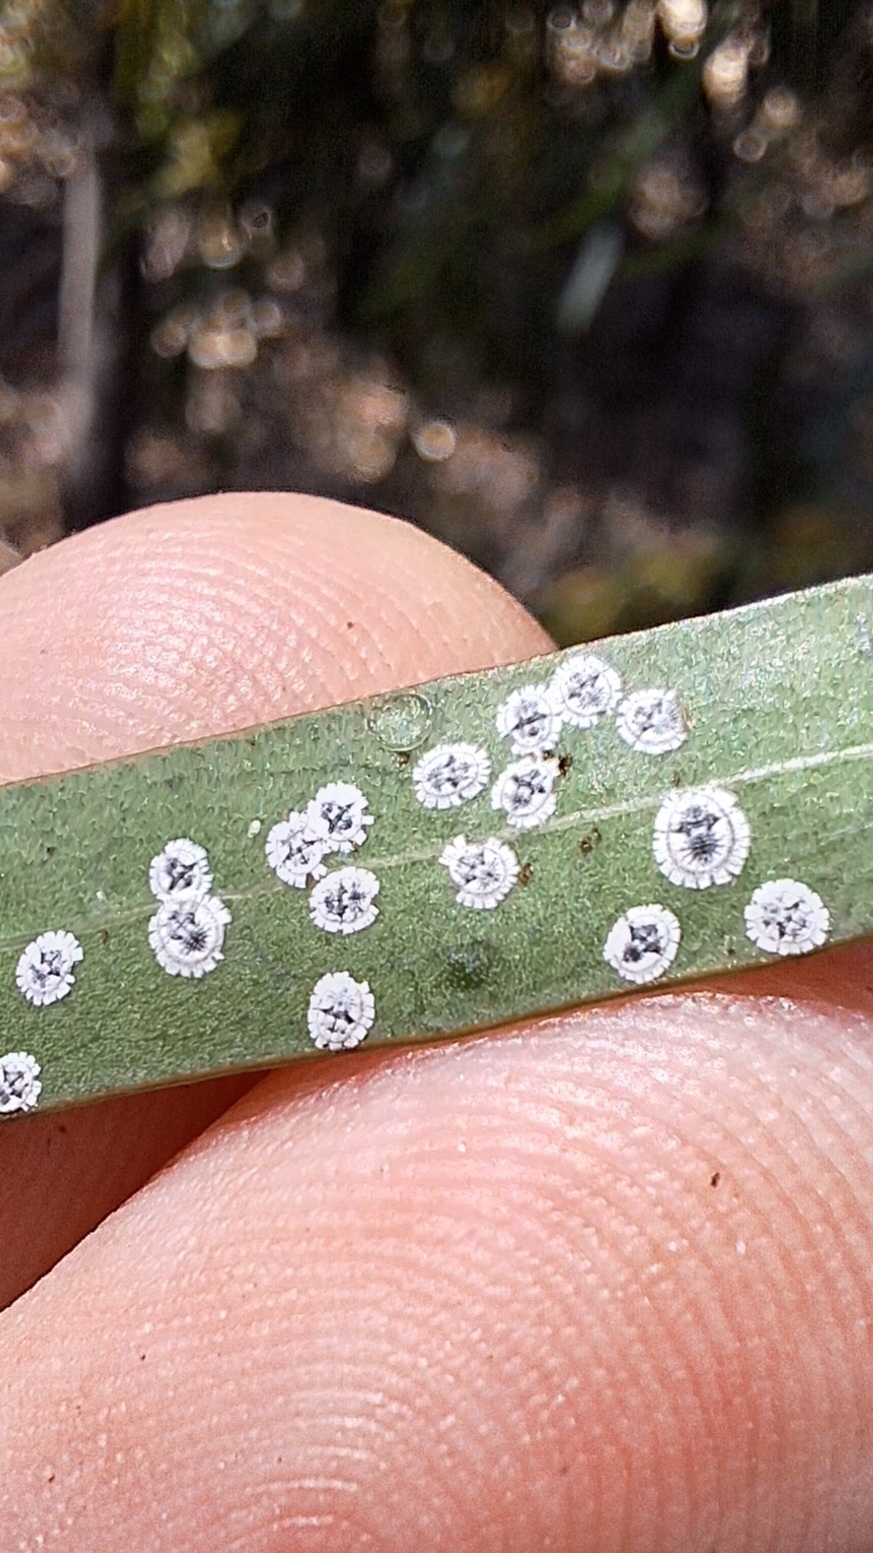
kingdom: Animalia
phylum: Arthropoda
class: Insecta
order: Hemiptera
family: Aleyrodidae
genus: Dumbletoniella
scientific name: Dumbletoniella pittospori
